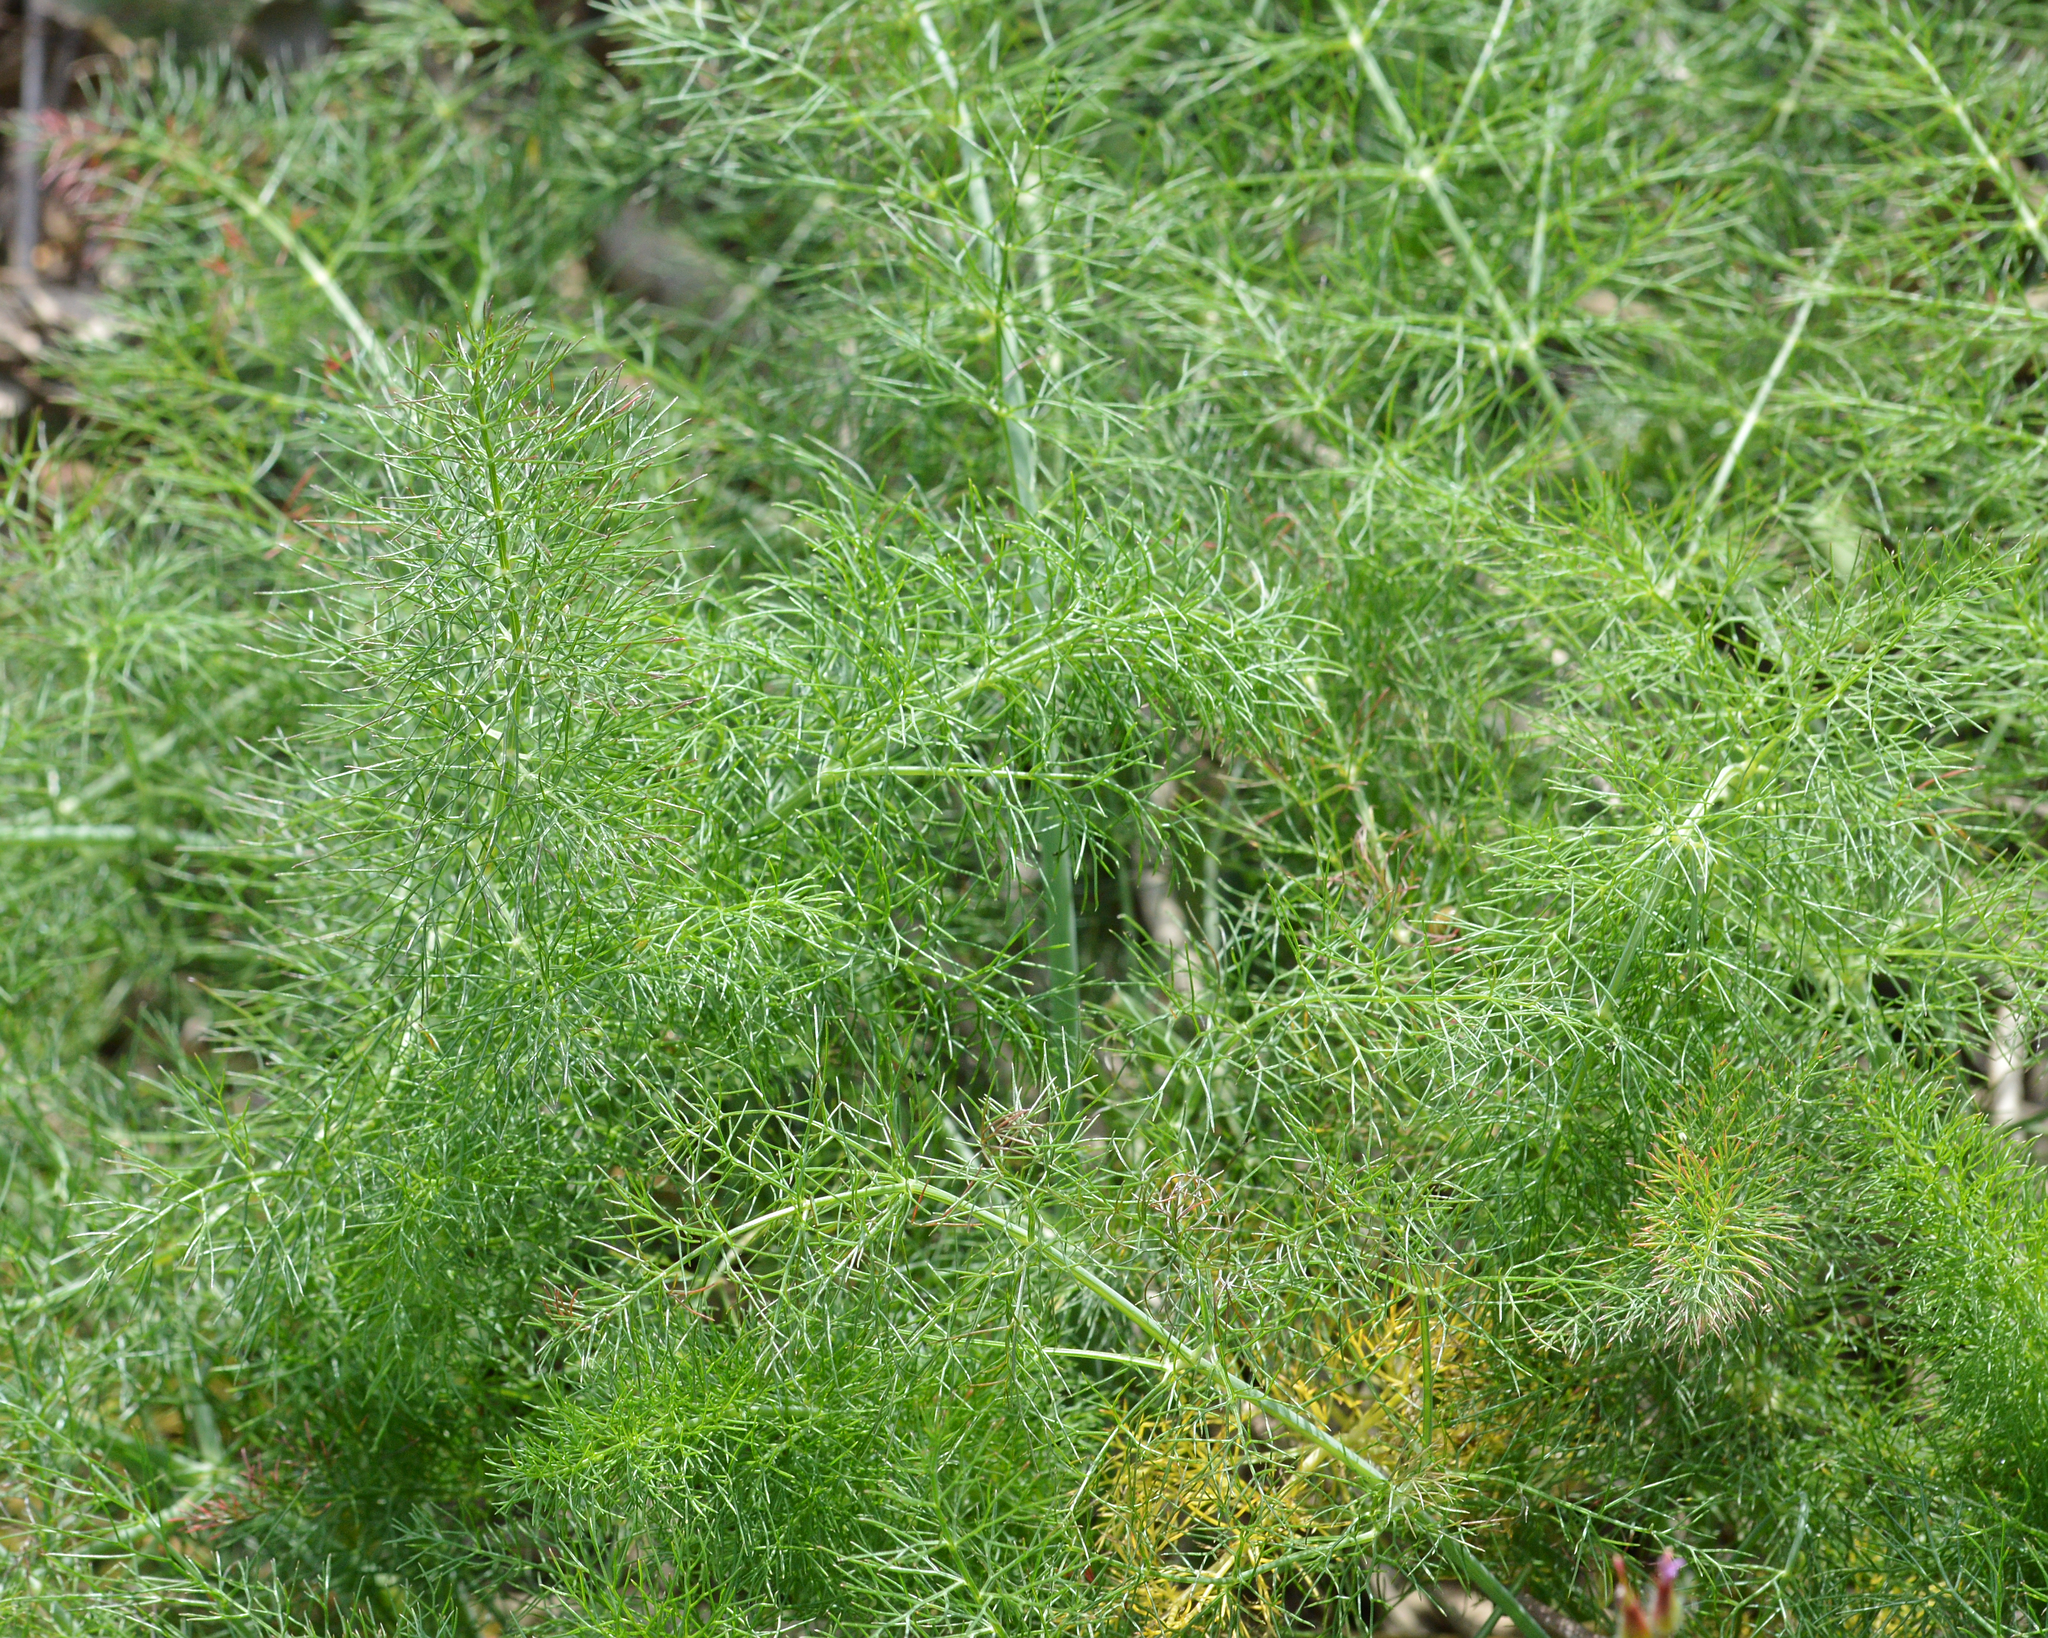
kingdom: Plantae
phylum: Tracheophyta
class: Magnoliopsida
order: Apiales
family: Apiaceae
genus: Foeniculum
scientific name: Foeniculum vulgare
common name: Fennel
